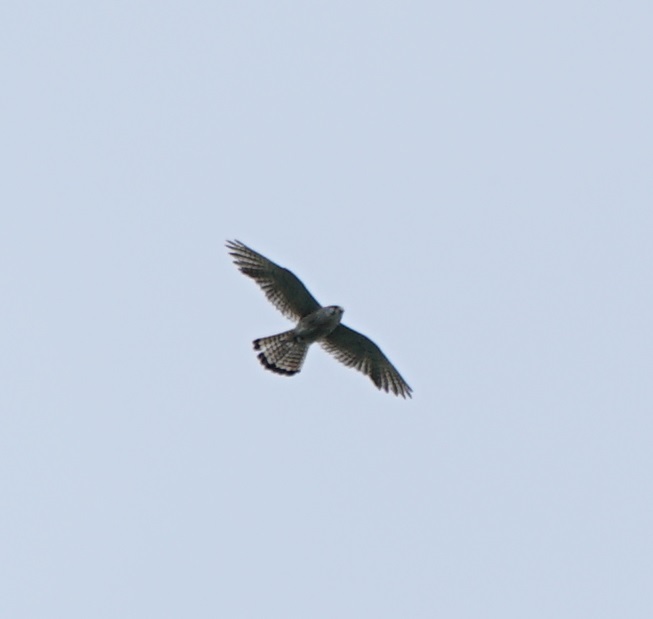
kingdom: Animalia
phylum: Chordata
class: Aves
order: Falconiformes
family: Falconidae
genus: Falco
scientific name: Falco tinnunculus
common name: Common kestrel
